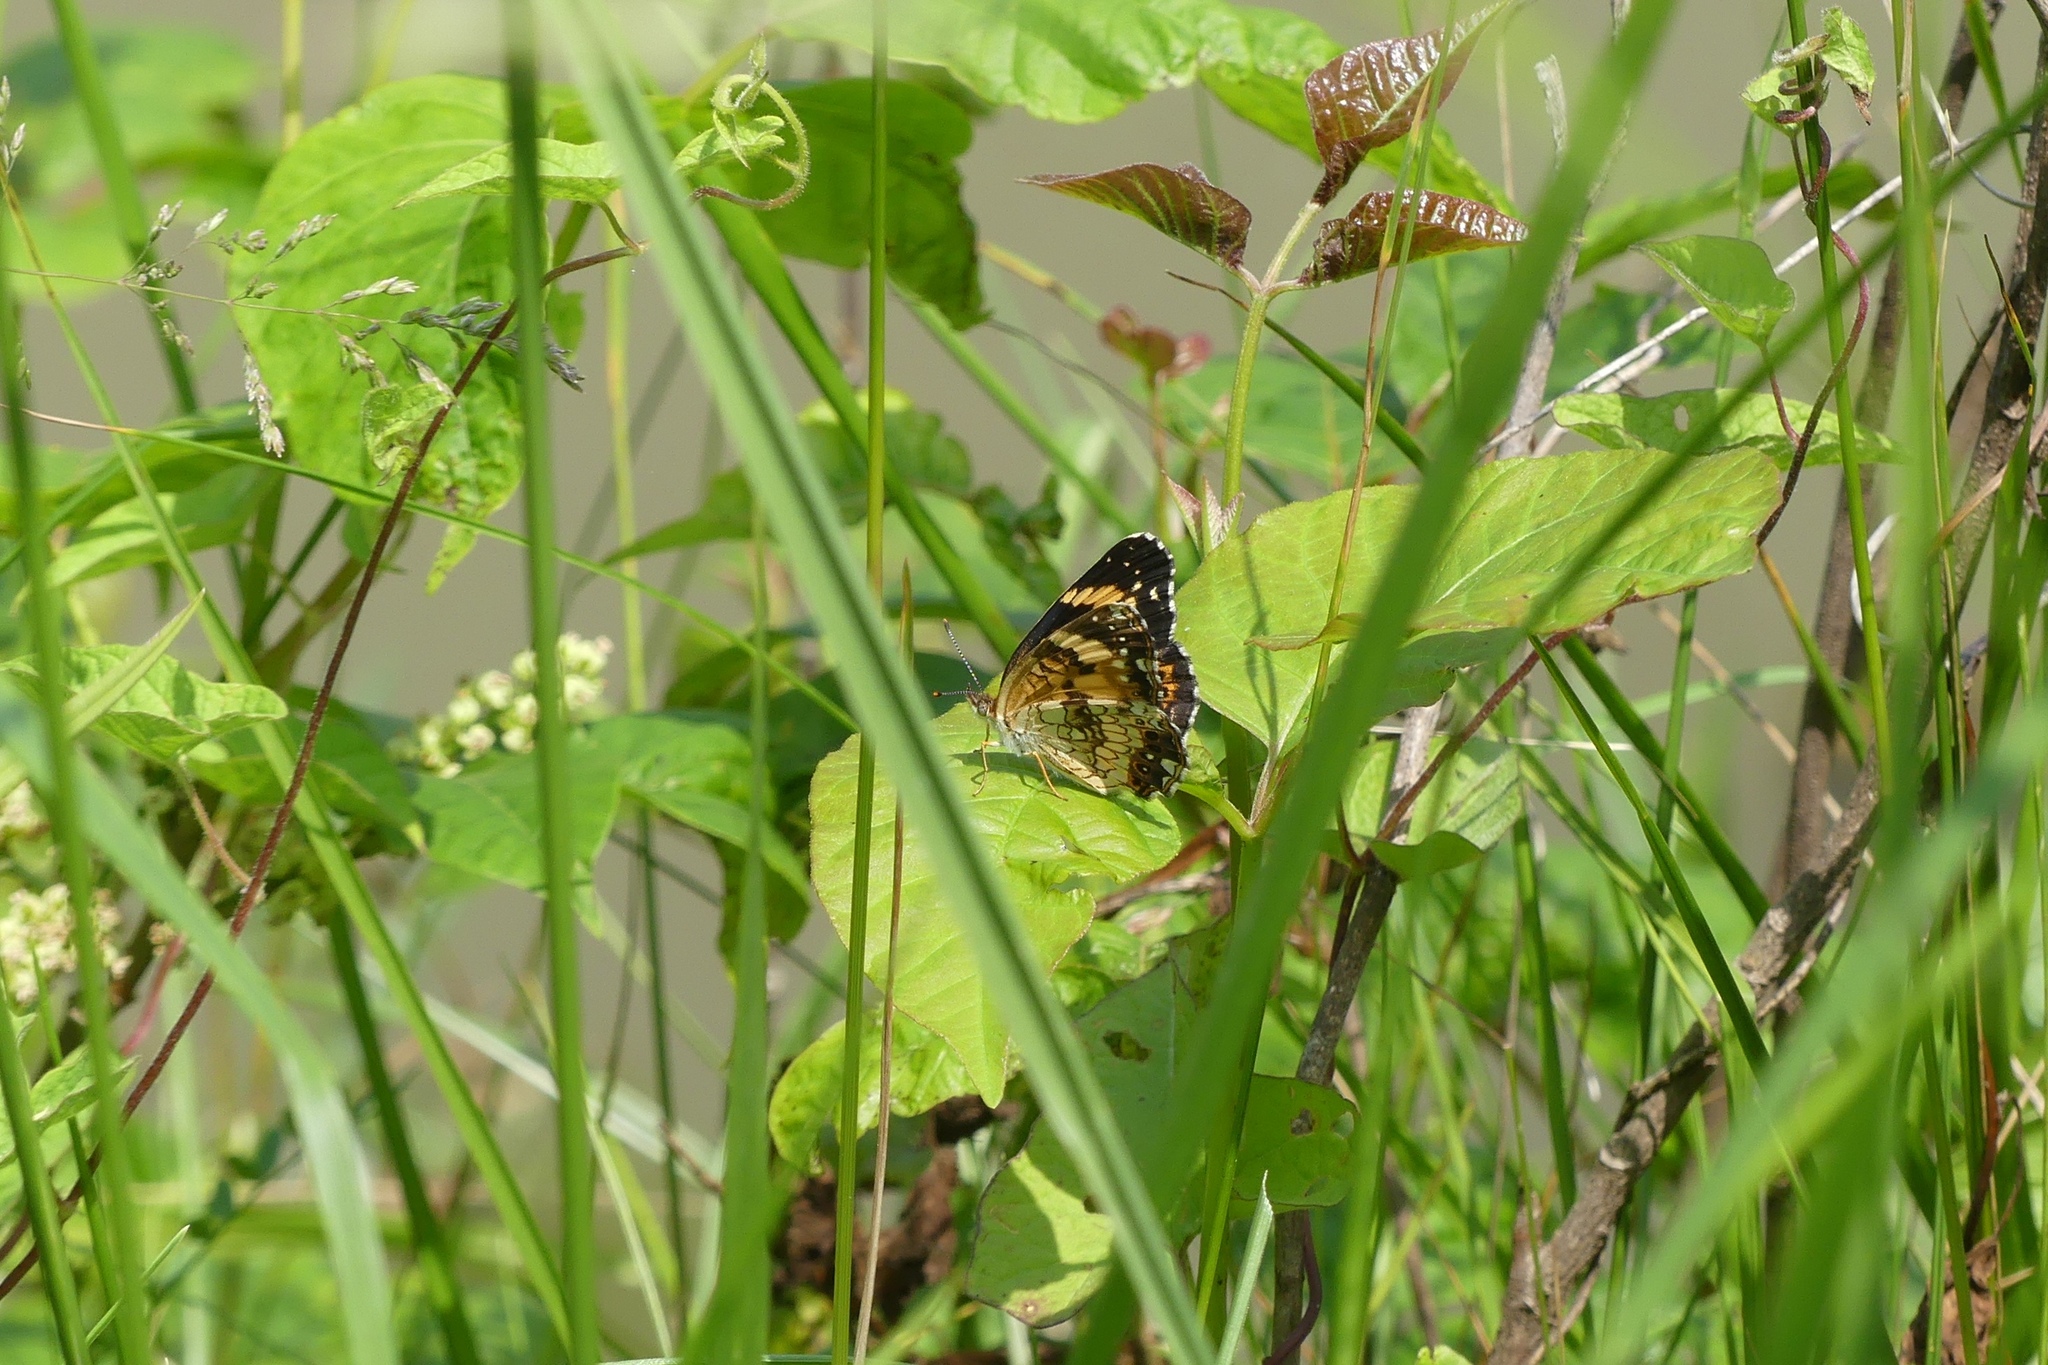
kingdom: Animalia
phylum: Arthropoda
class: Insecta
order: Lepidoptera
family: Nymphalidae
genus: Chlosyne
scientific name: Chlosyne nycteis
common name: Silvery checkerspot
